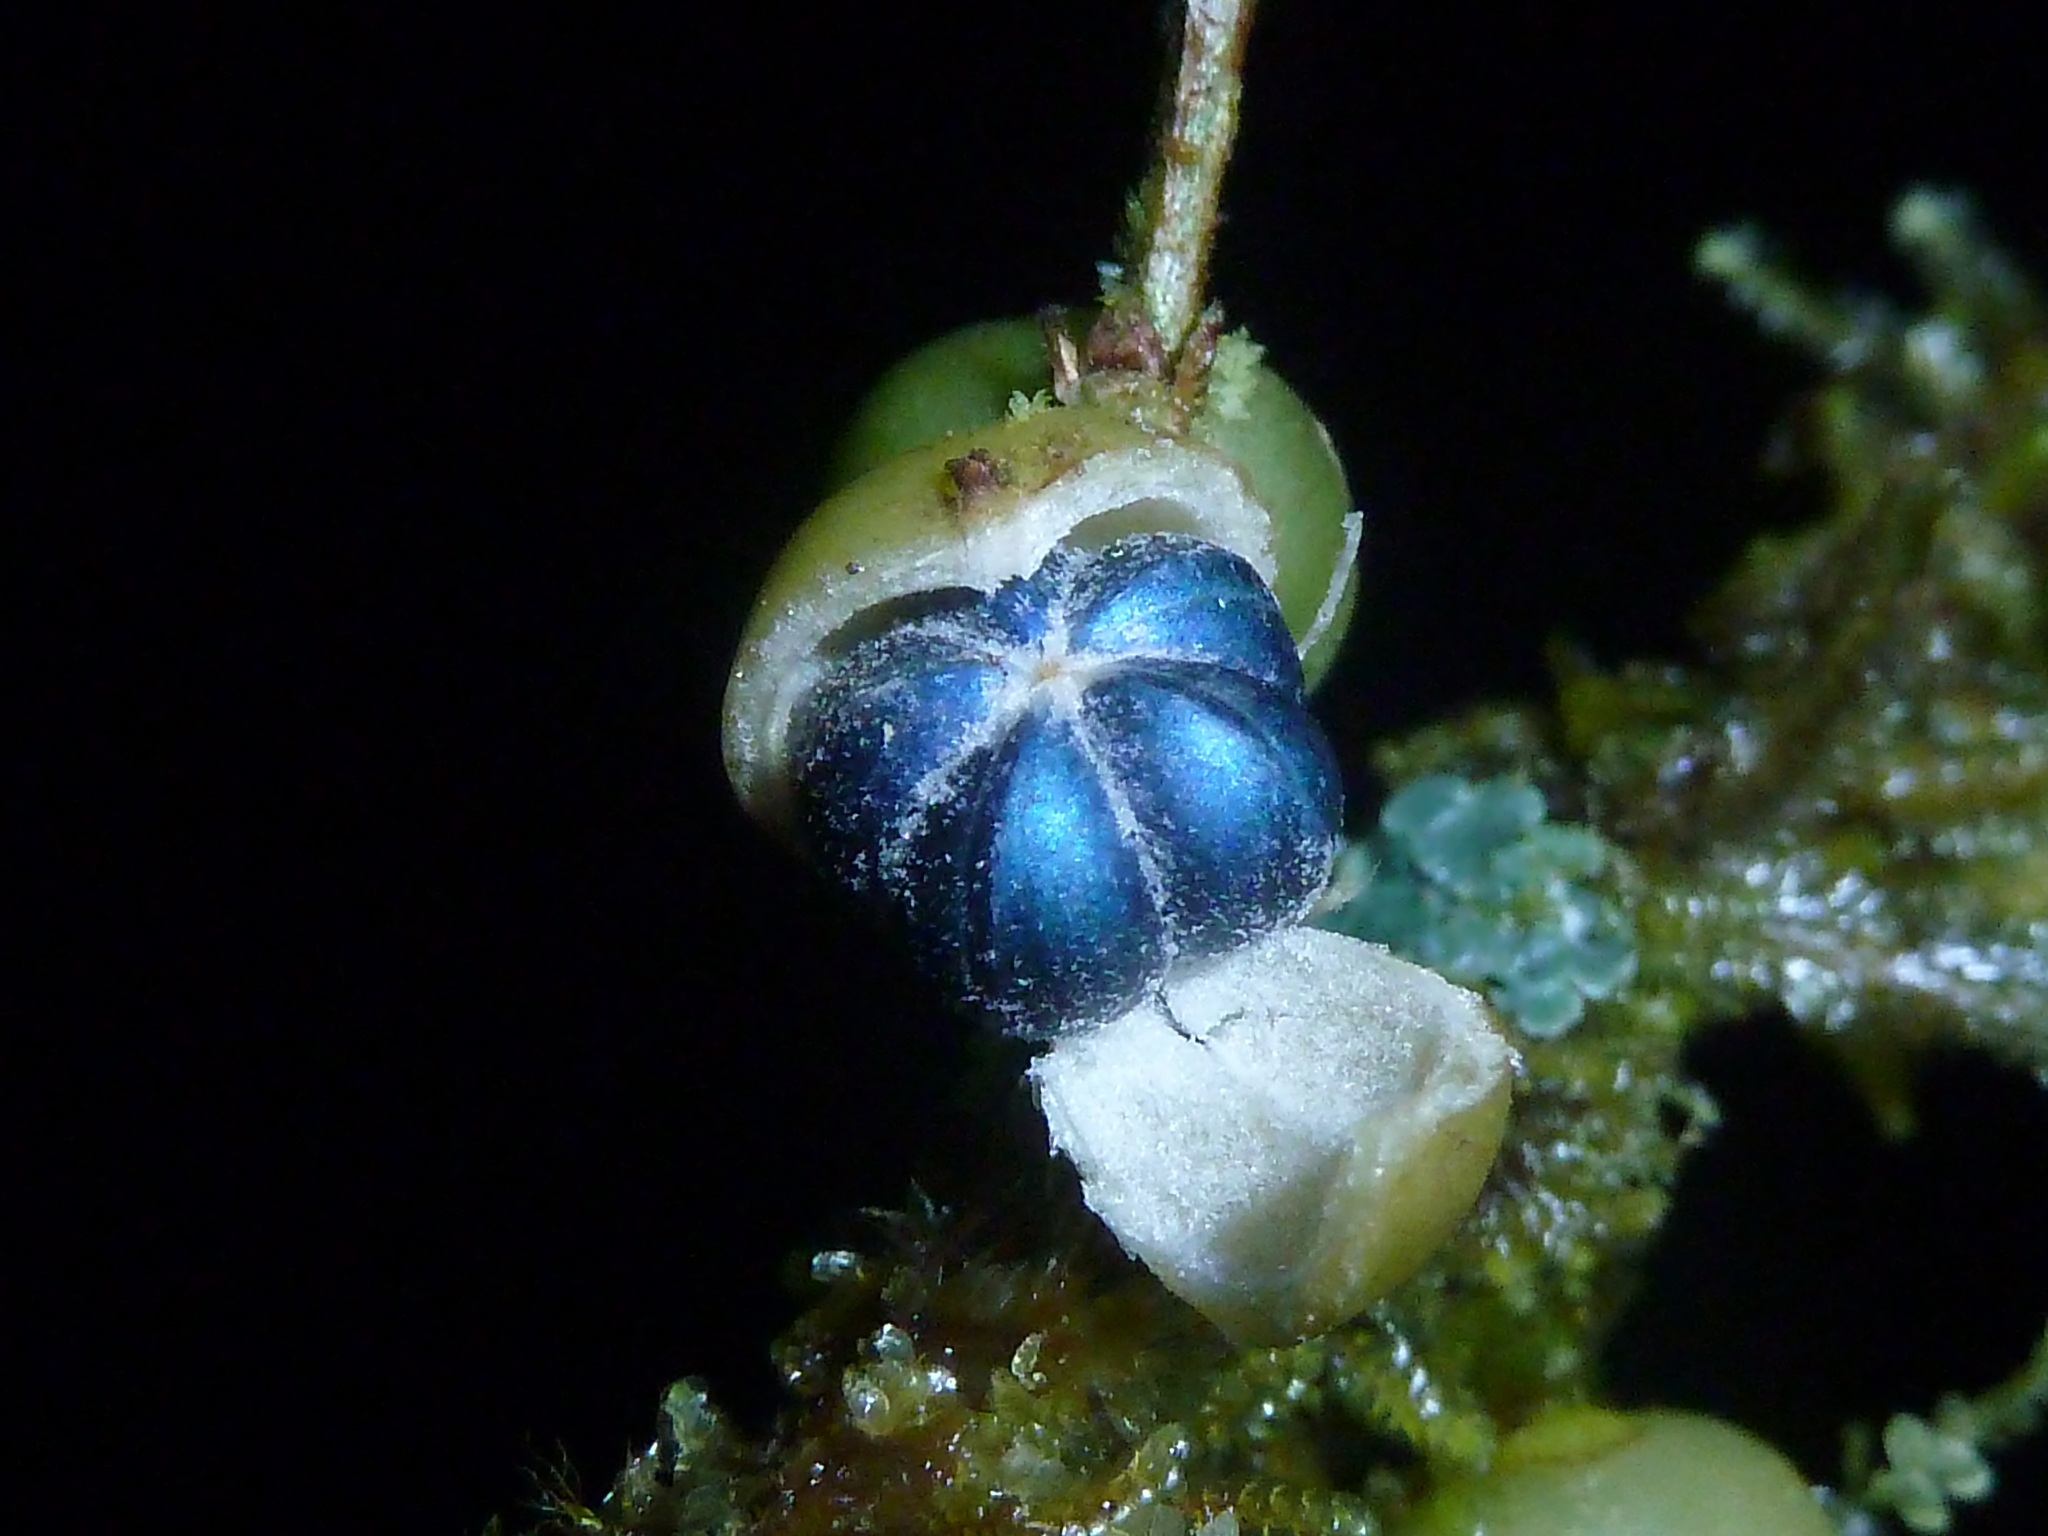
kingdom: Plantae
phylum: Tracheophyta
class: Magnoliopsida
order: Malpighiales
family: Phyllanthaceae
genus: Margaritaria
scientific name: Margaritaria nobilis
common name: Goose berry
